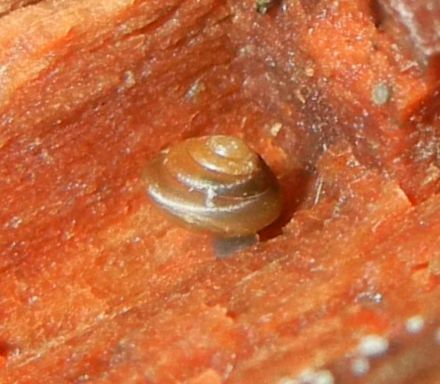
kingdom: Animalia
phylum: Mollusca
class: Gastropoda
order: Stylommatophora
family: Euconulidae
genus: Euconulus
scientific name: Euconulus fulvus
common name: Tawny glass snail
